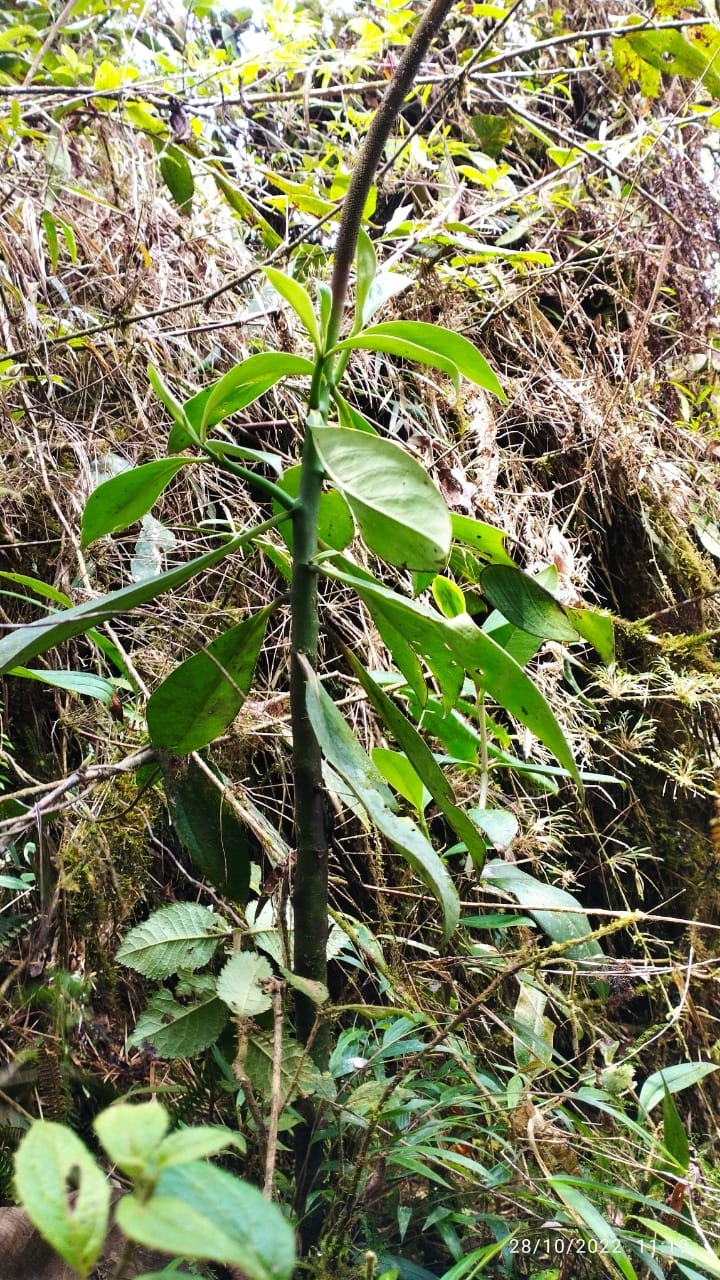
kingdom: Plantae
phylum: Tracheophyta
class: Magnoliopsida
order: Piperales
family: Piperaceae
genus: Peperomia
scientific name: Peperomia acuminata
